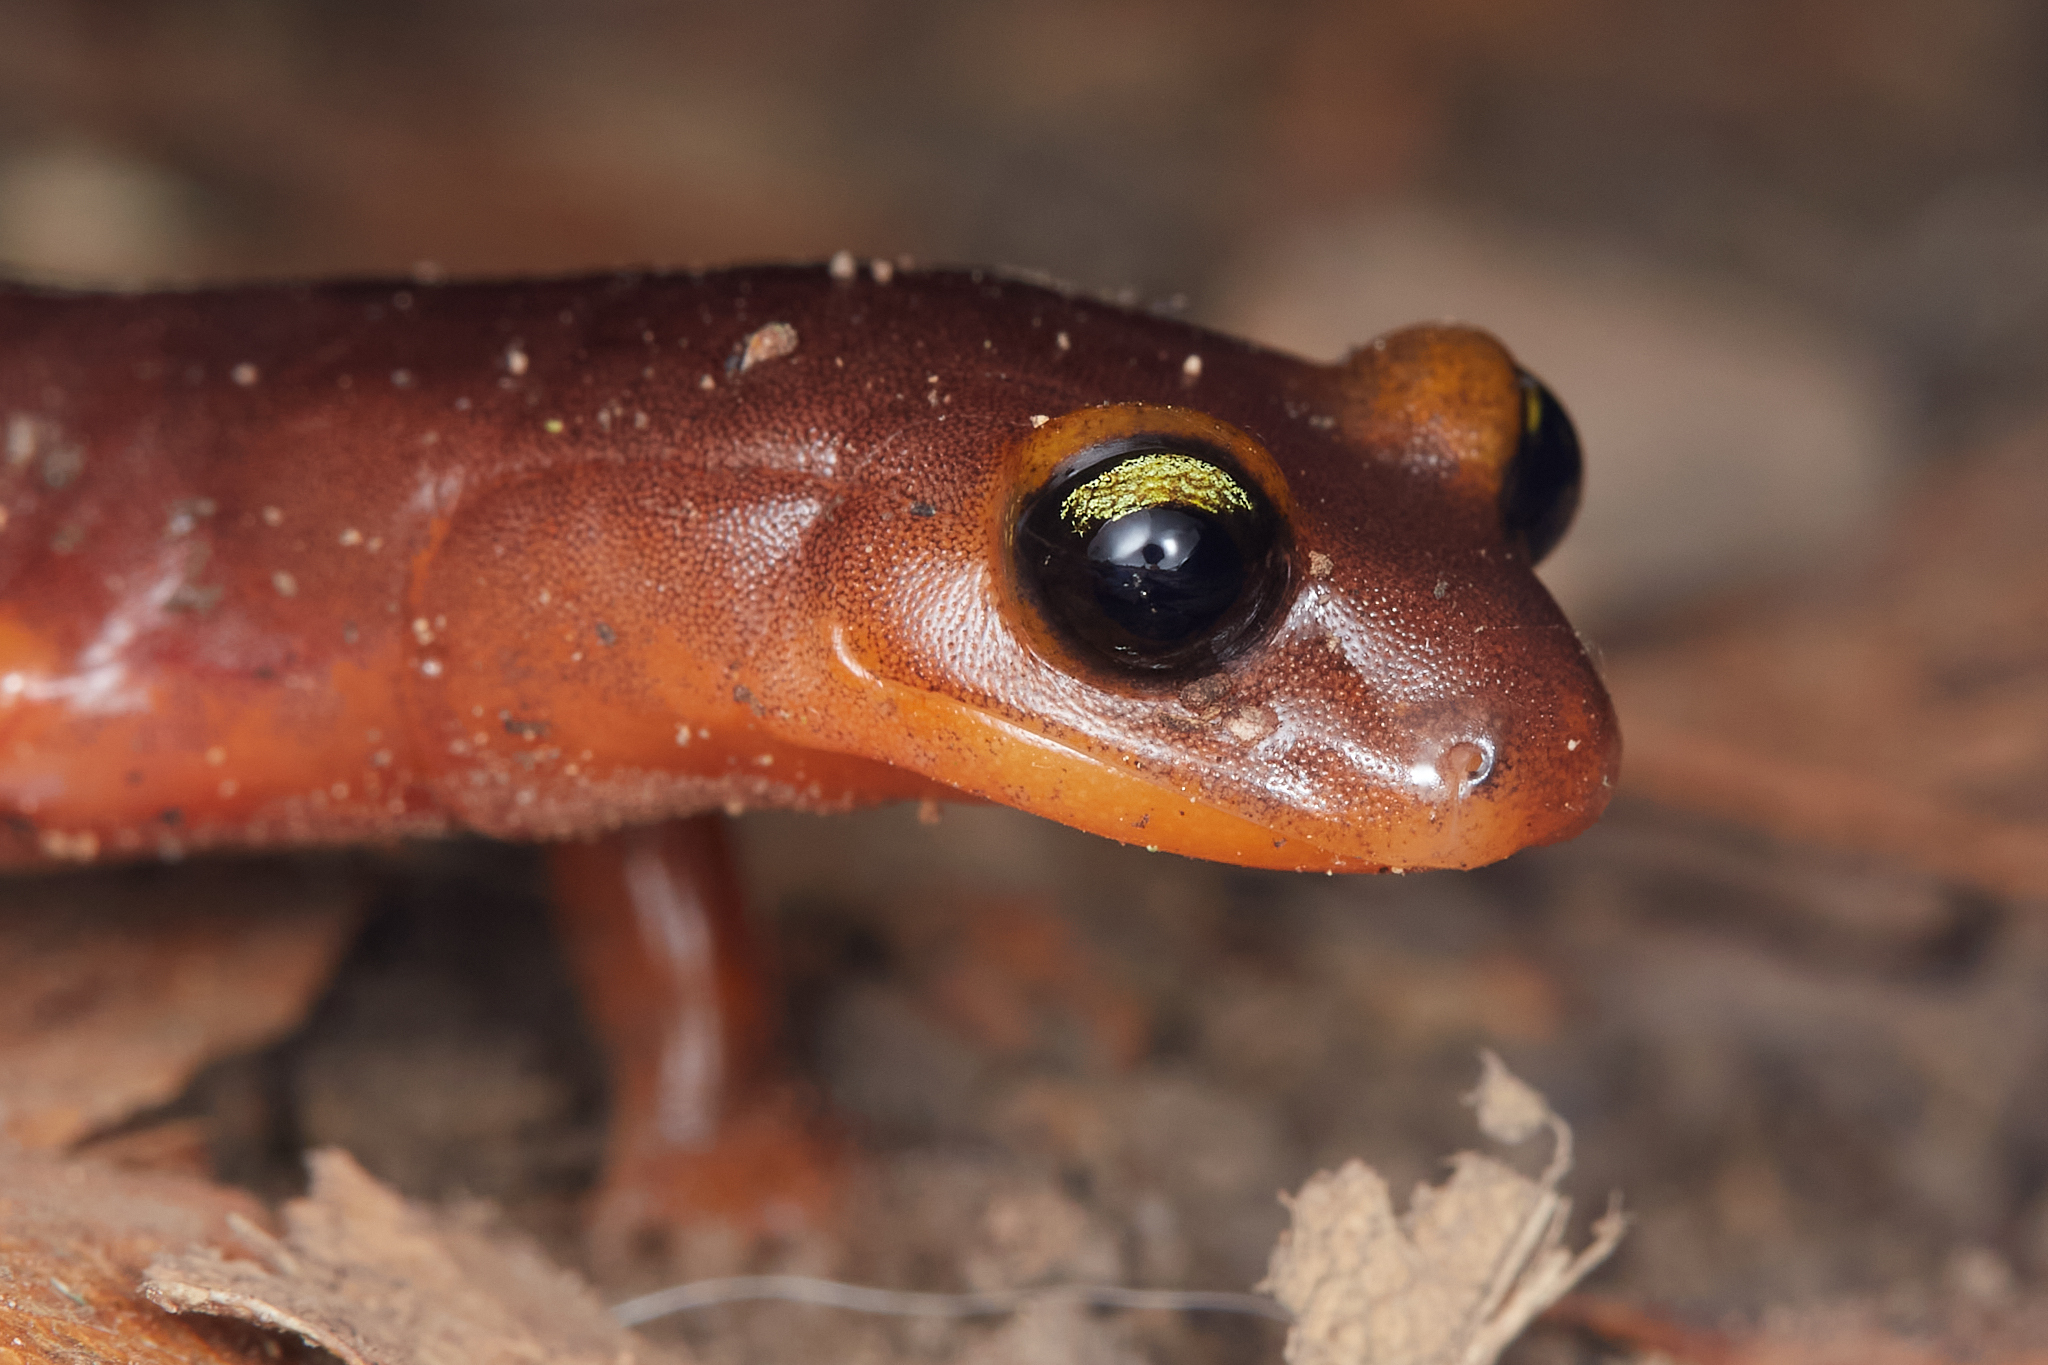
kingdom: Animalia
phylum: Chordata
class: Amphibia
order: Caudata
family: Plethodontidae
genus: Ensatina
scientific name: Ensatina eschscholtzii
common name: Ensatina
